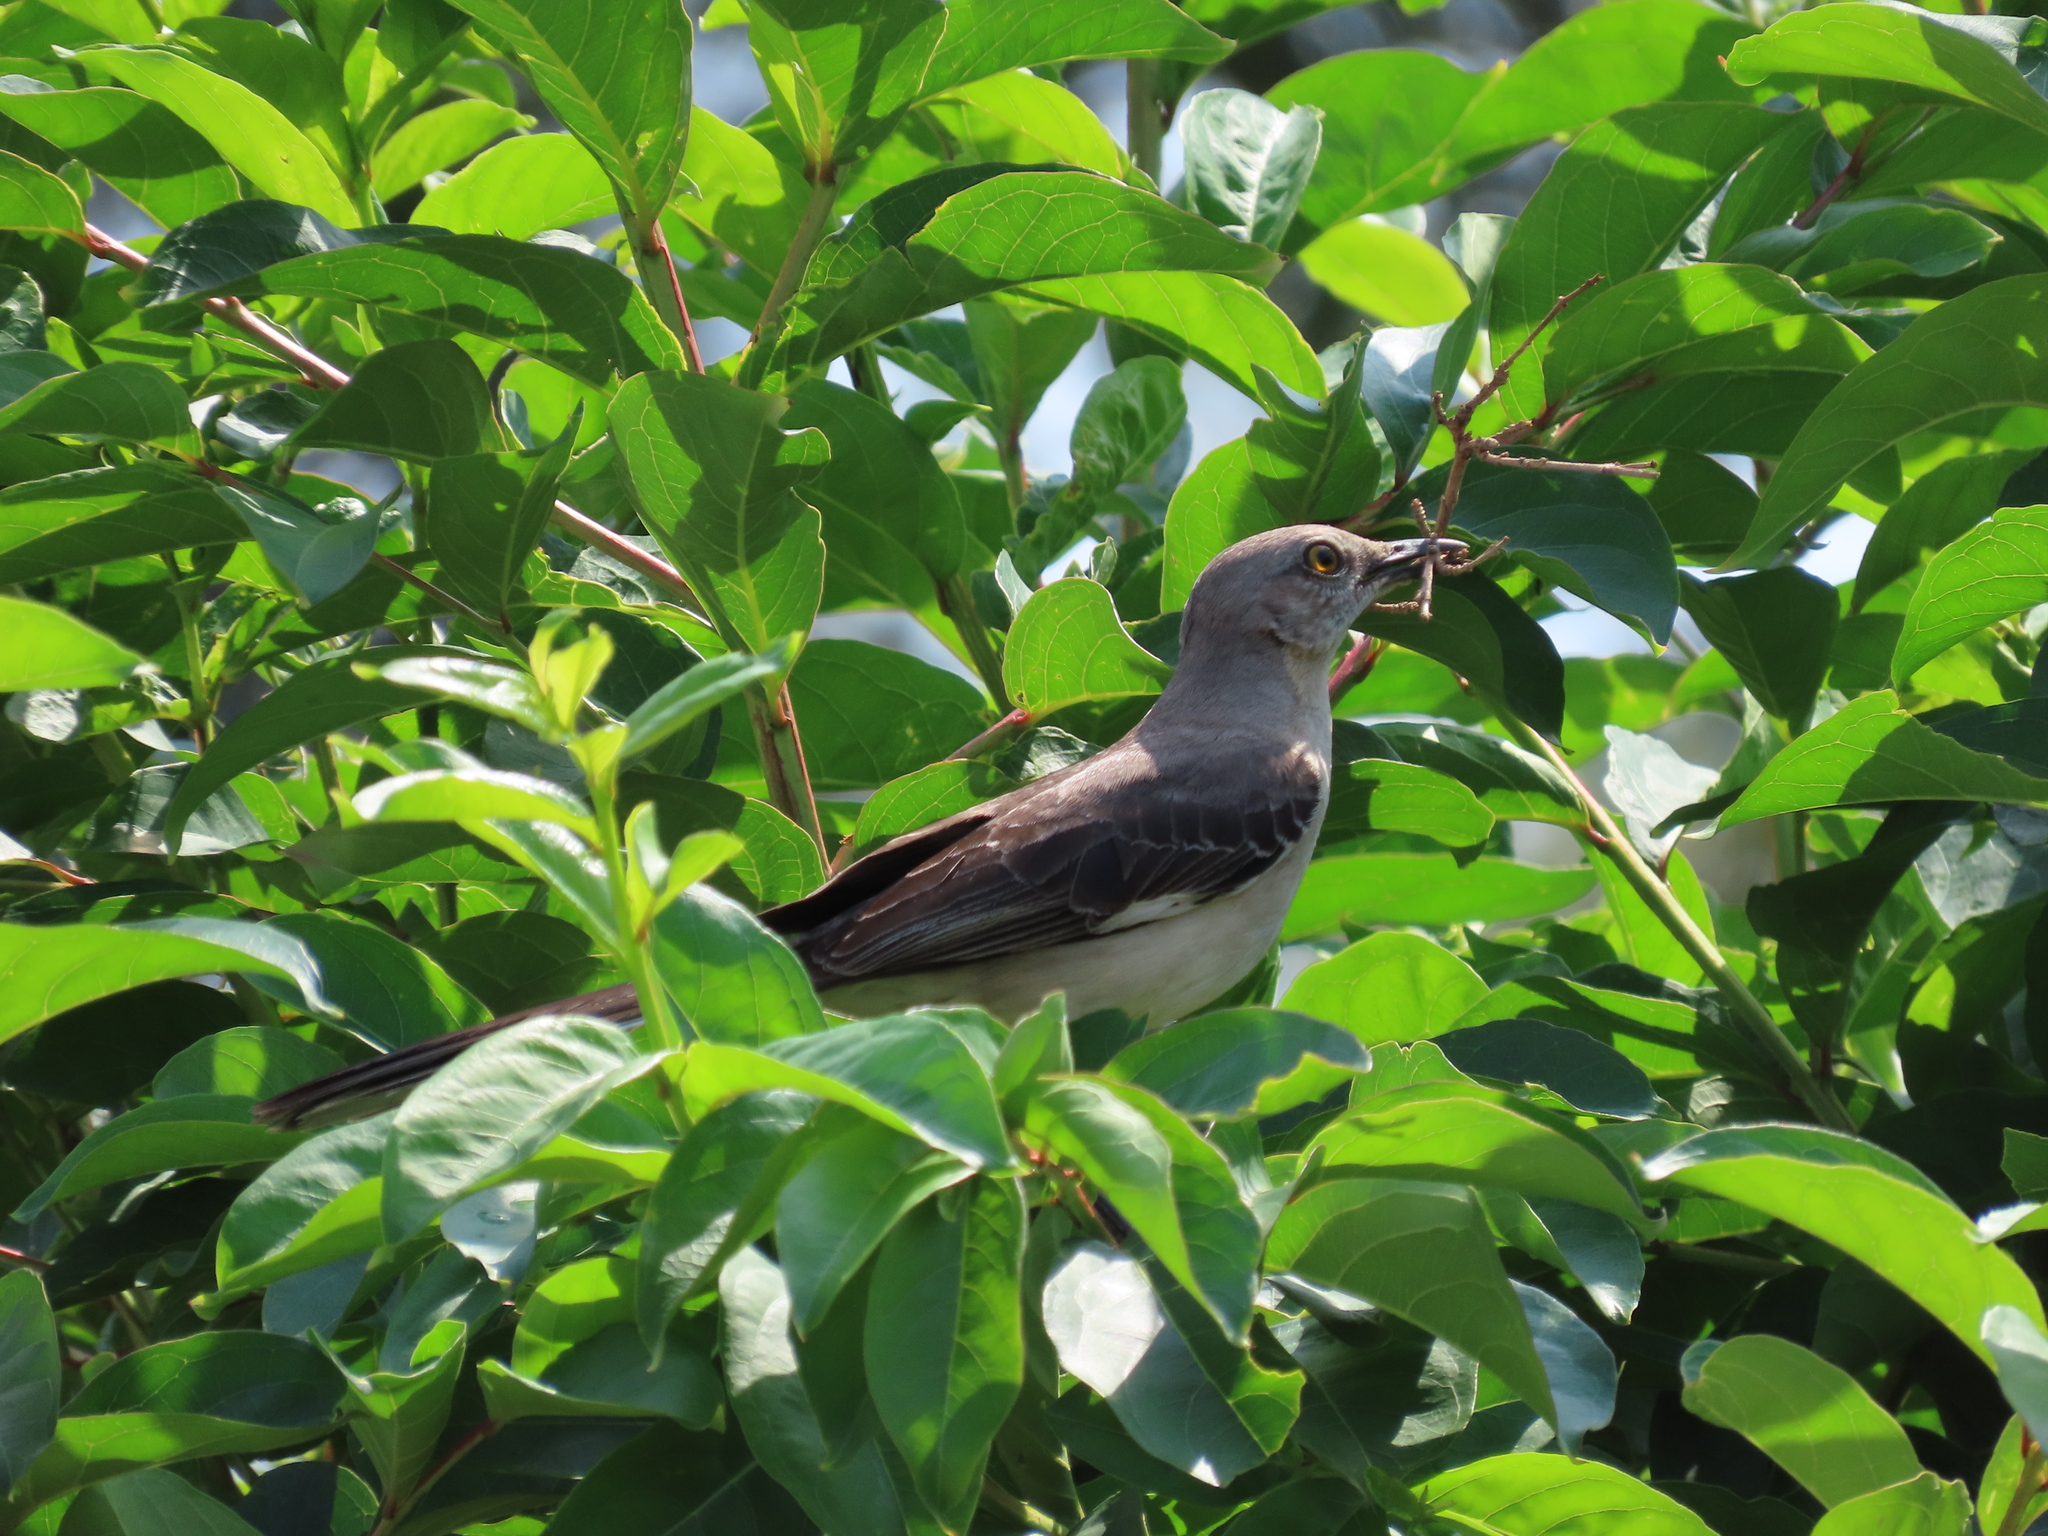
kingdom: Animalia
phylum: Chordata
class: Aves
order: Passeriformes
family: Mimidae
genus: Mimus
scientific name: Mimus polyglottos
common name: Northern mockingbird
